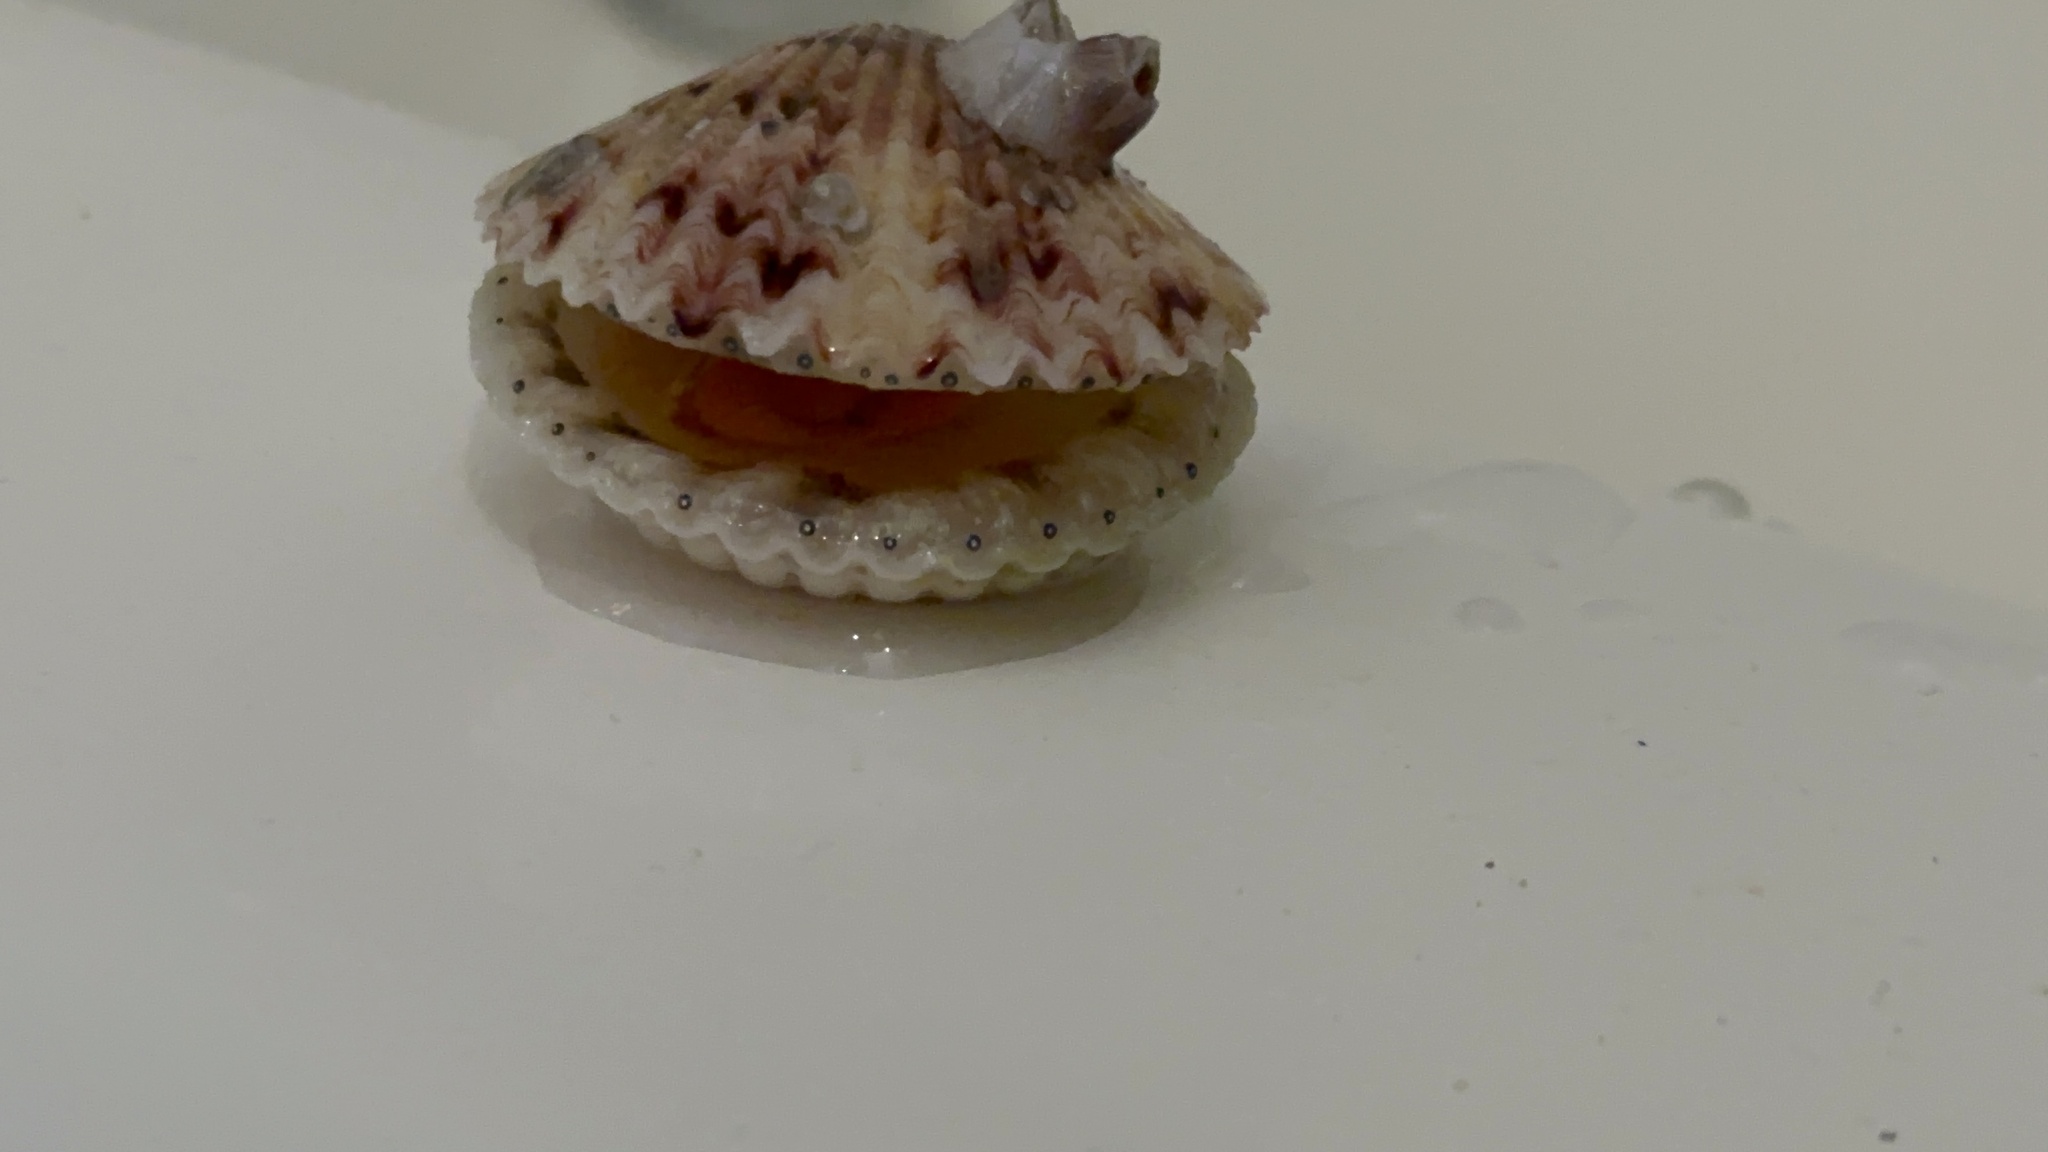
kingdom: Animalia
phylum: Mollusca
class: Bivalvia
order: Pectinida
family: Pectinidae
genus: Argopecten
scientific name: Argopecten gibbus
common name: Atlantic calico scallop
